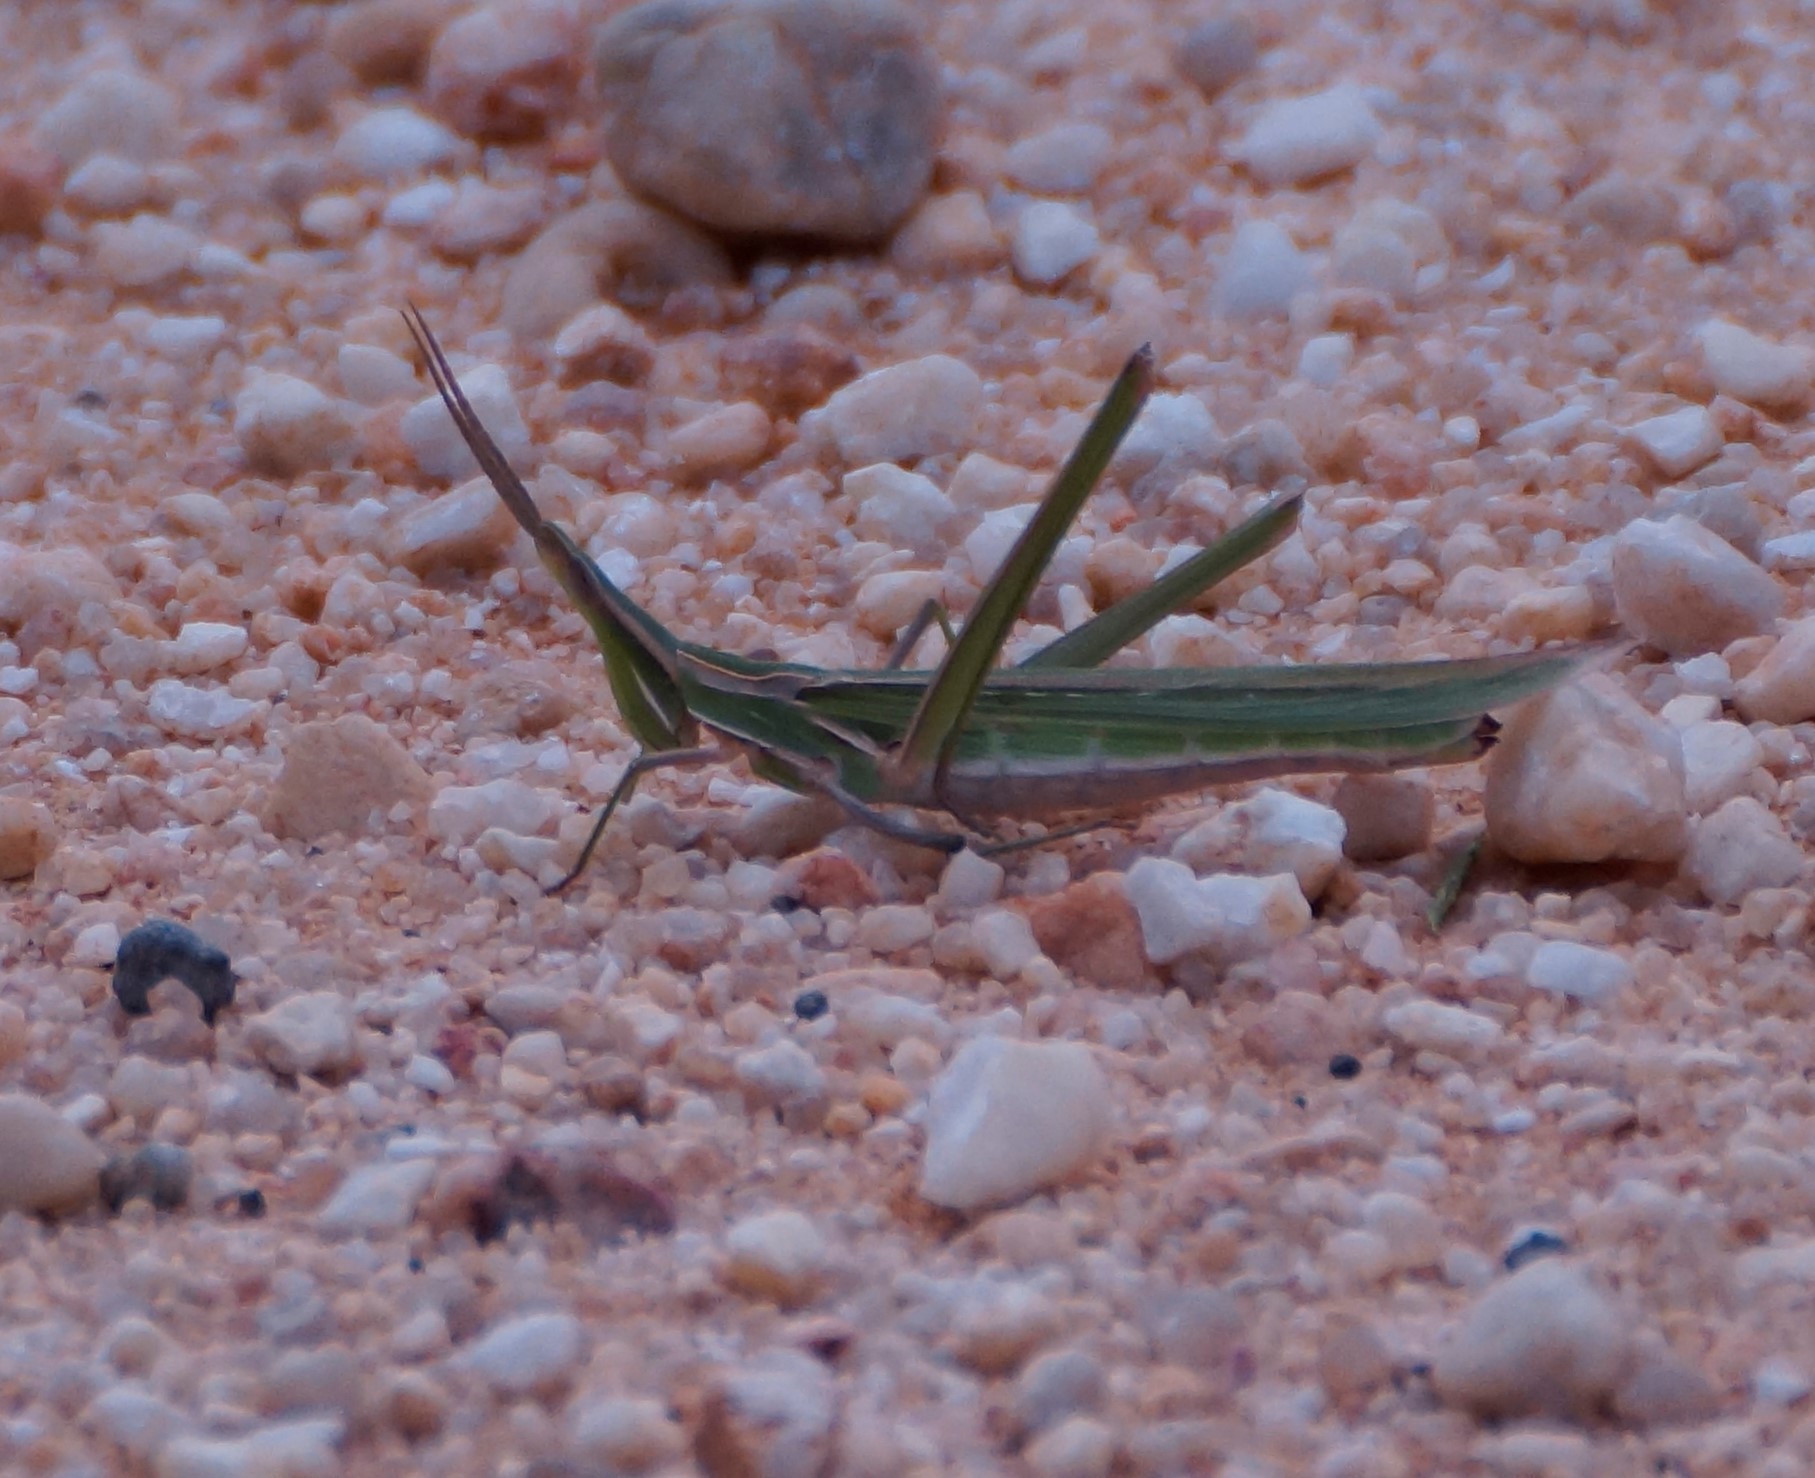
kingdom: Animalia
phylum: Arthropoda
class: Insecta
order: Orthoptera
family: Acrididae
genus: Acrida
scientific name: Acrida conica
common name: Giant green slantface
